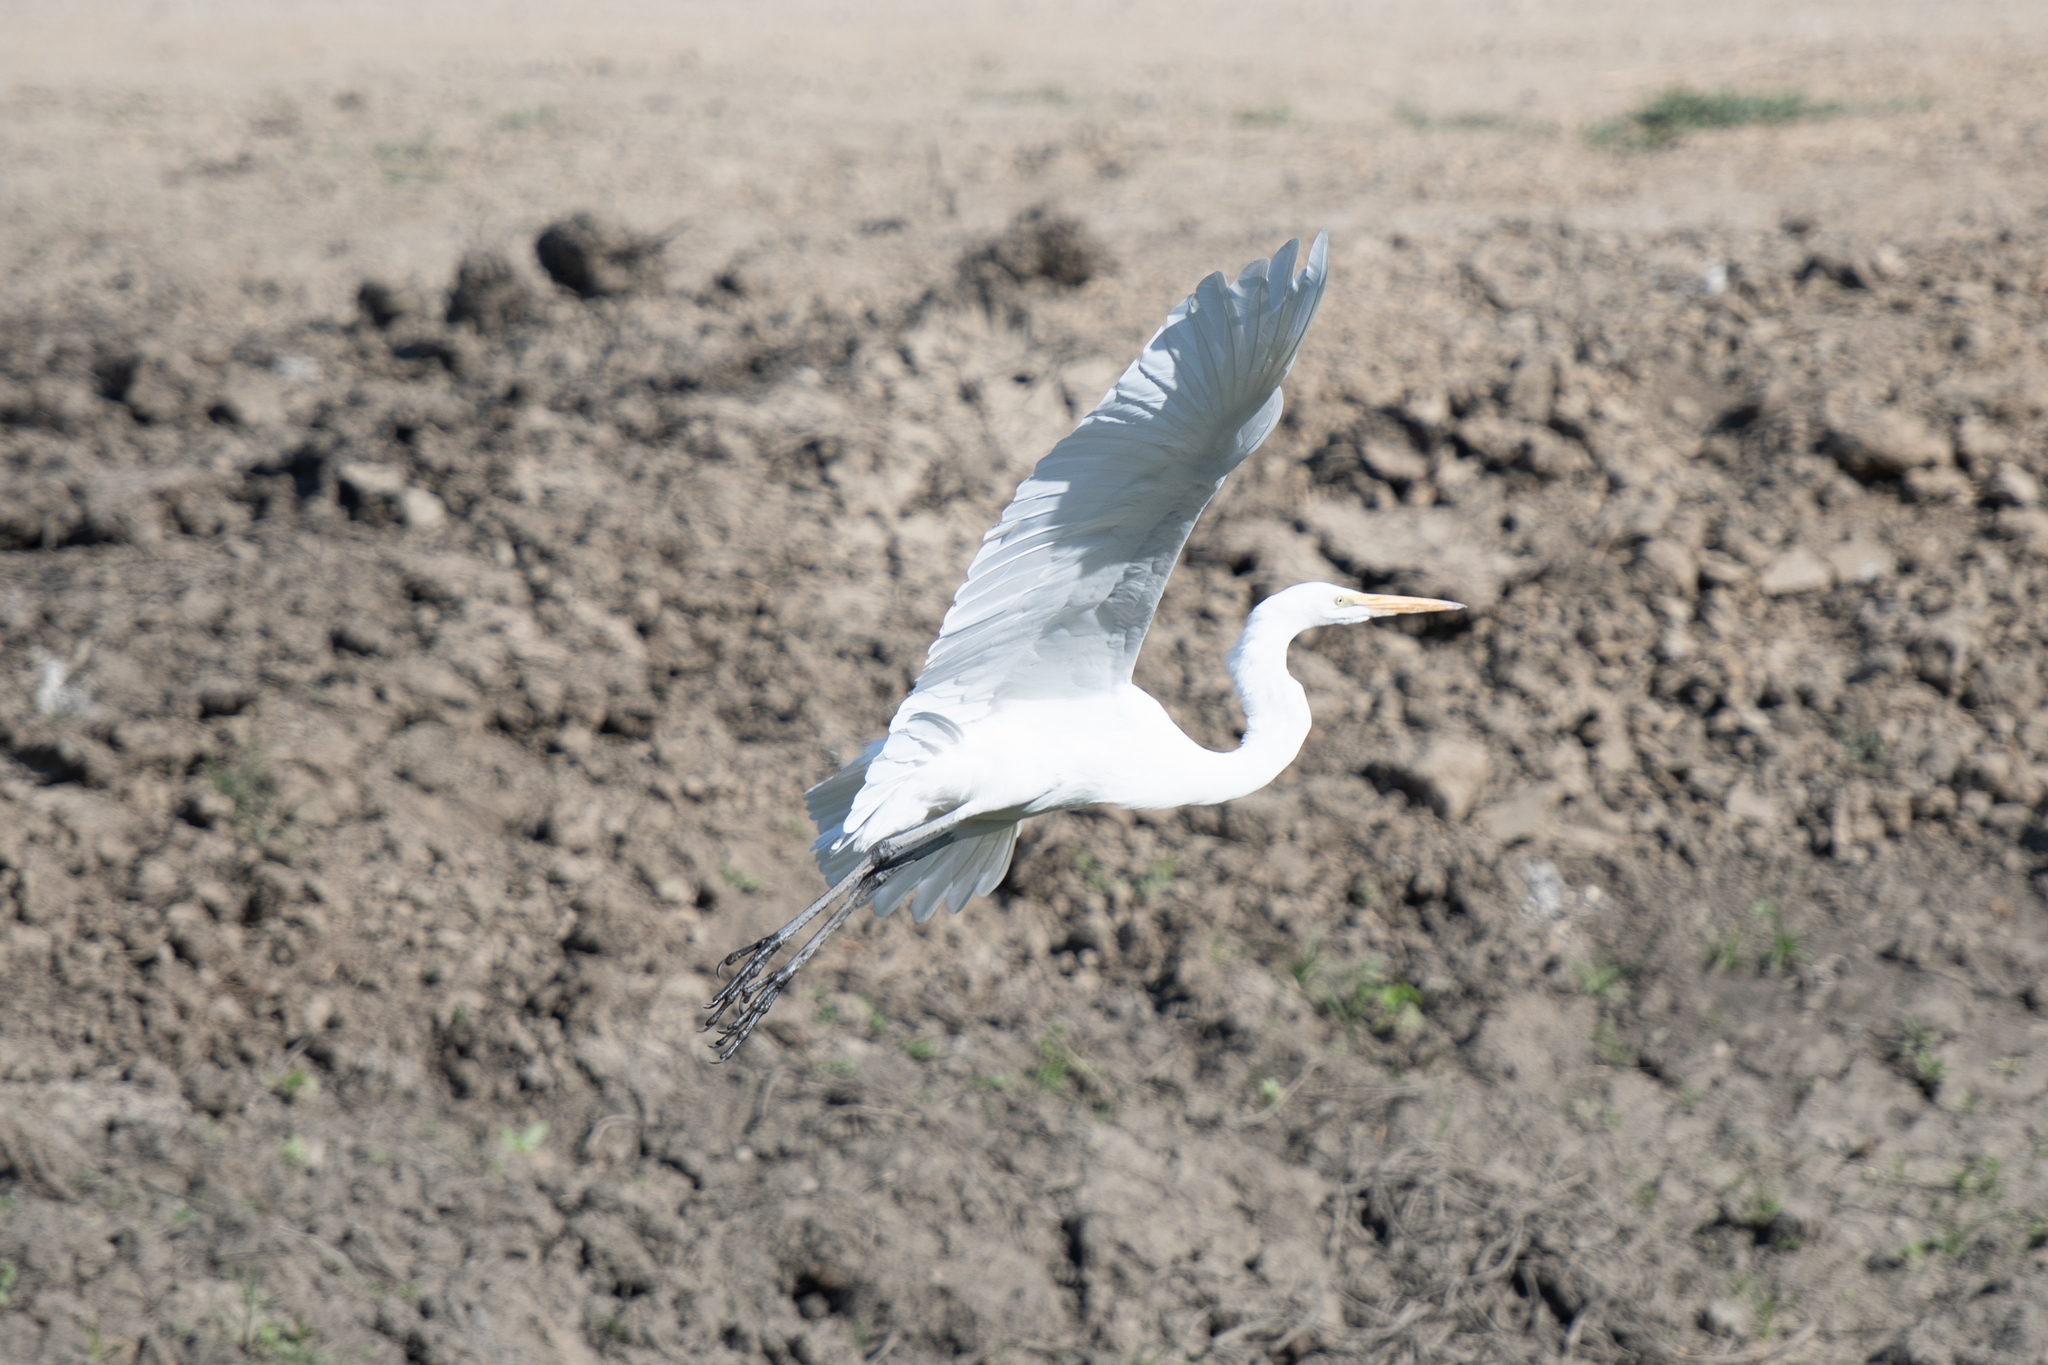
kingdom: Animalia
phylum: Chordata
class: Aves
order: Pelecaniformes
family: Ardeidae
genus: Ardea
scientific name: Ardea alba
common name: Great egret
